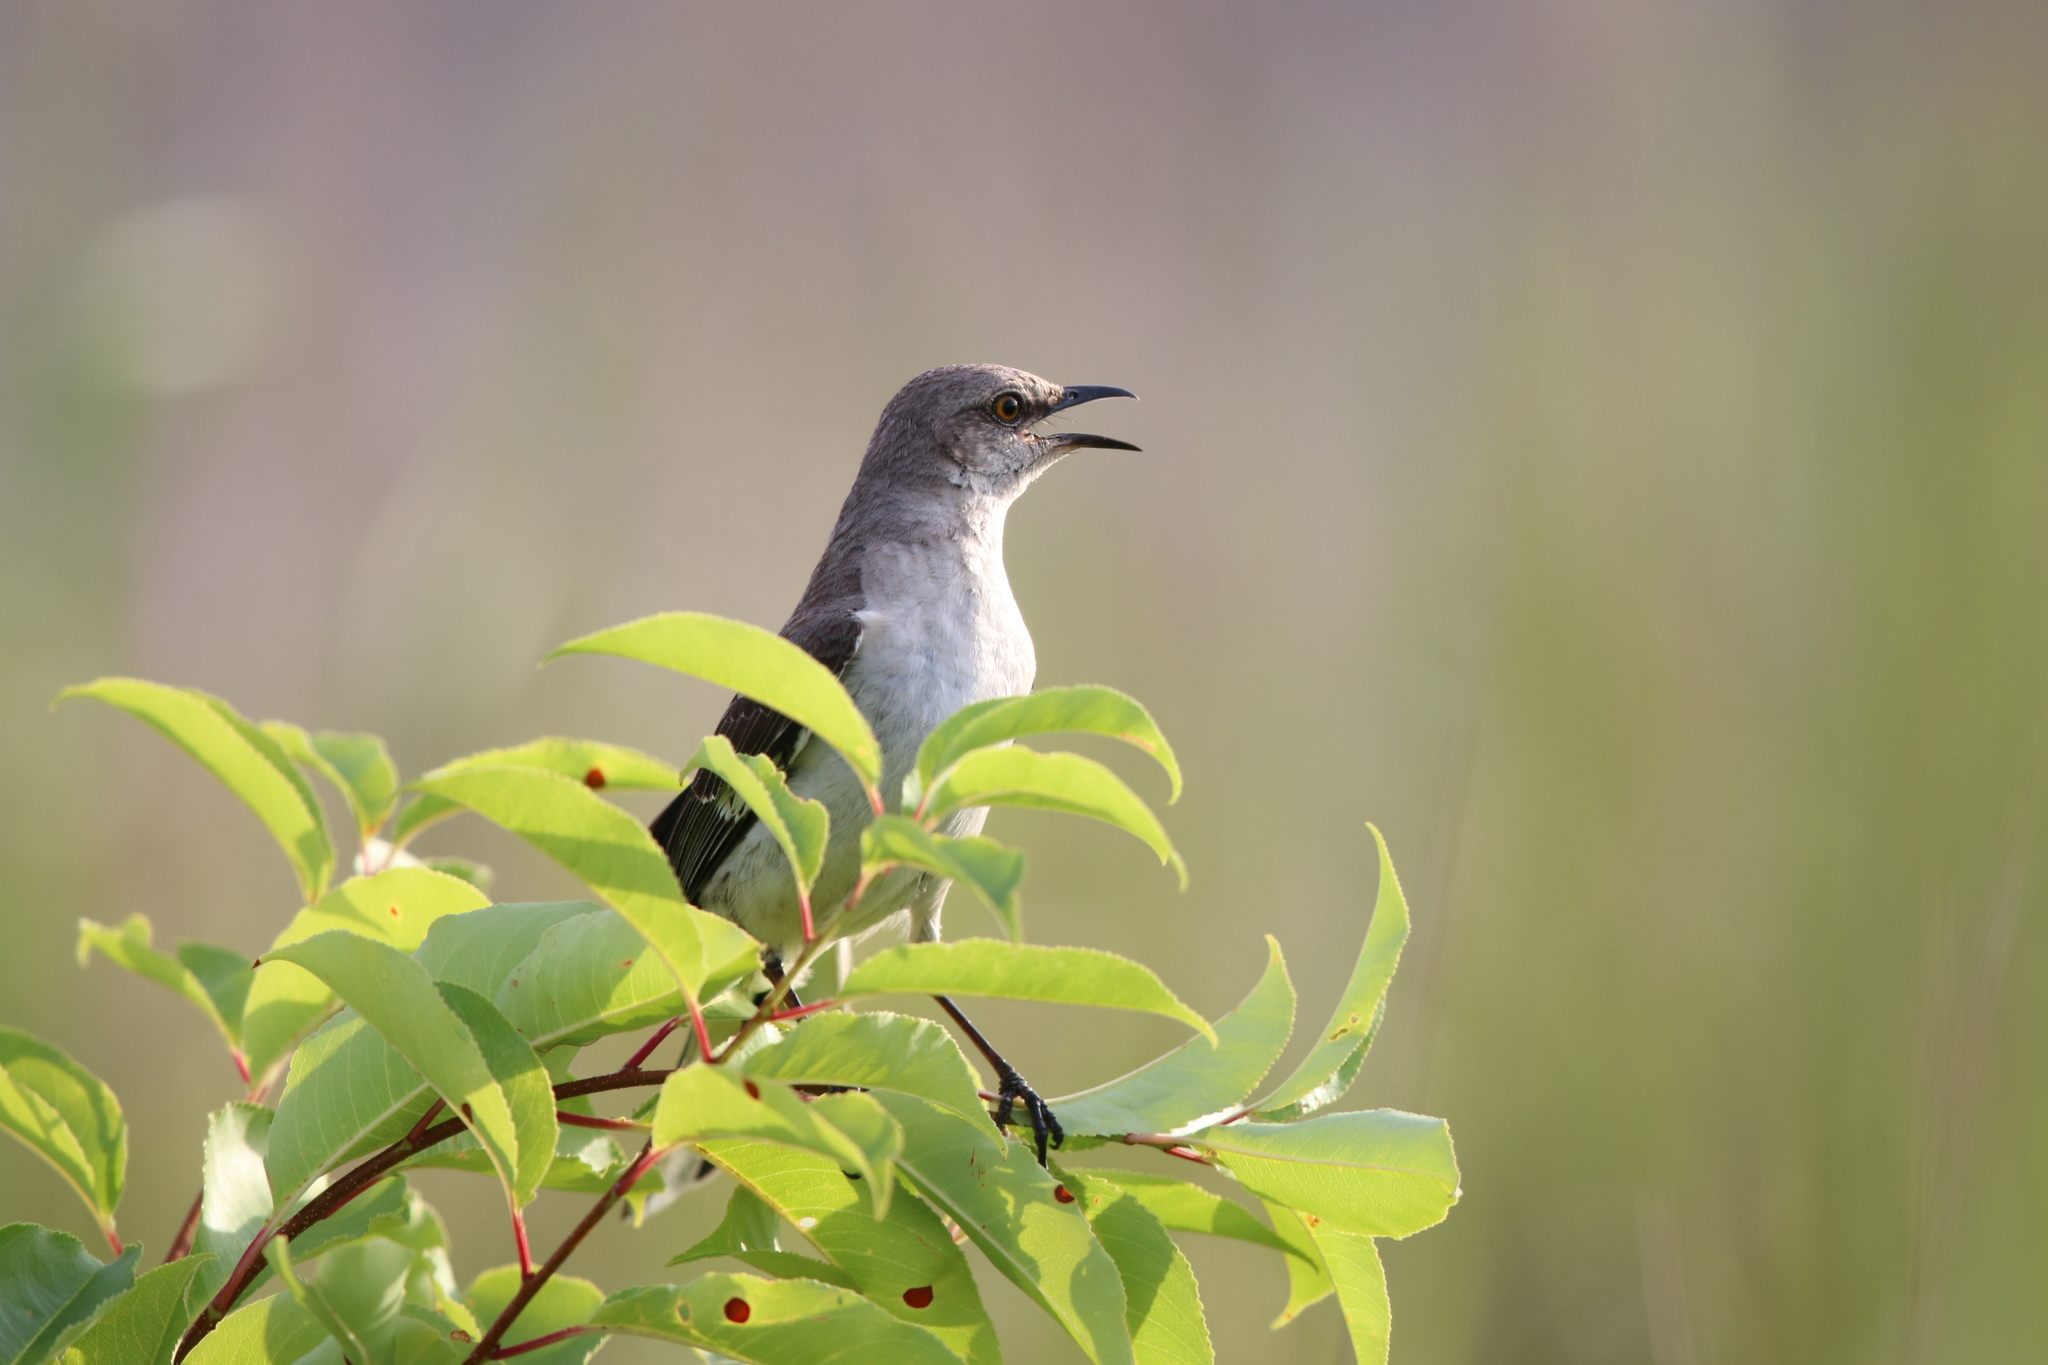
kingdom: Animalia
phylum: Chordata
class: Aves
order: Passeriformes
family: Mimidae
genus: Mimus
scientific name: Mimus polyglottos
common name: Northern mockingbird
